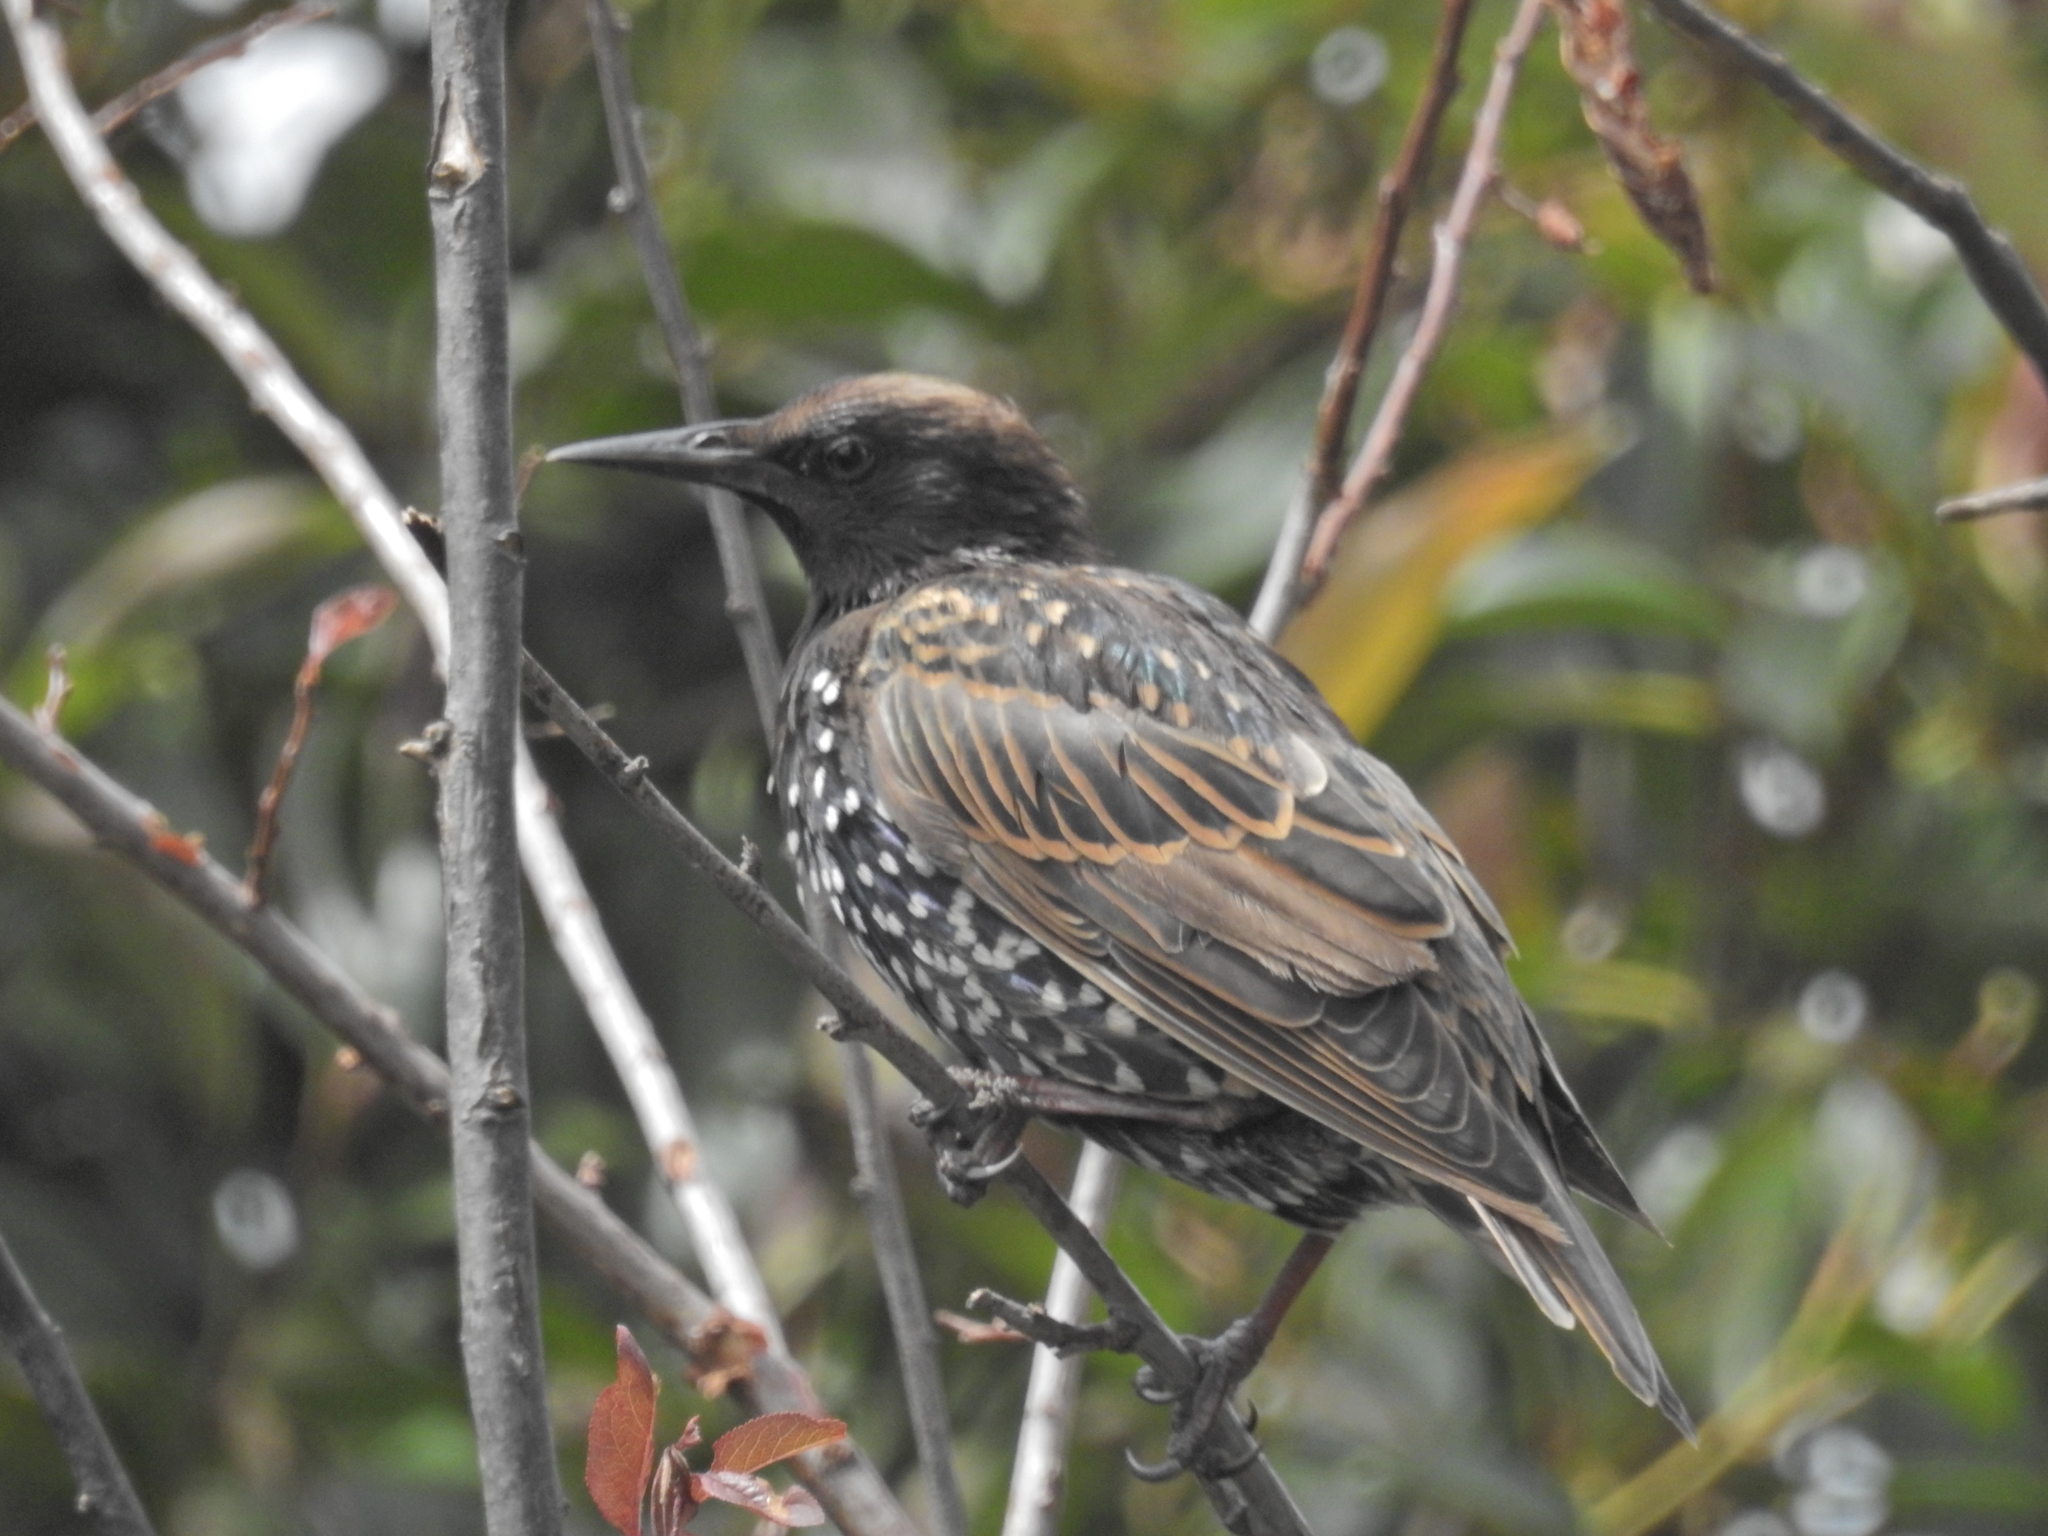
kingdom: Animalia
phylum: Chordata
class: Aves
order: Passeriformes
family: Sturnidae
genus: Sturnus
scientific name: Sturnus vulgaris
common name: Common starling
